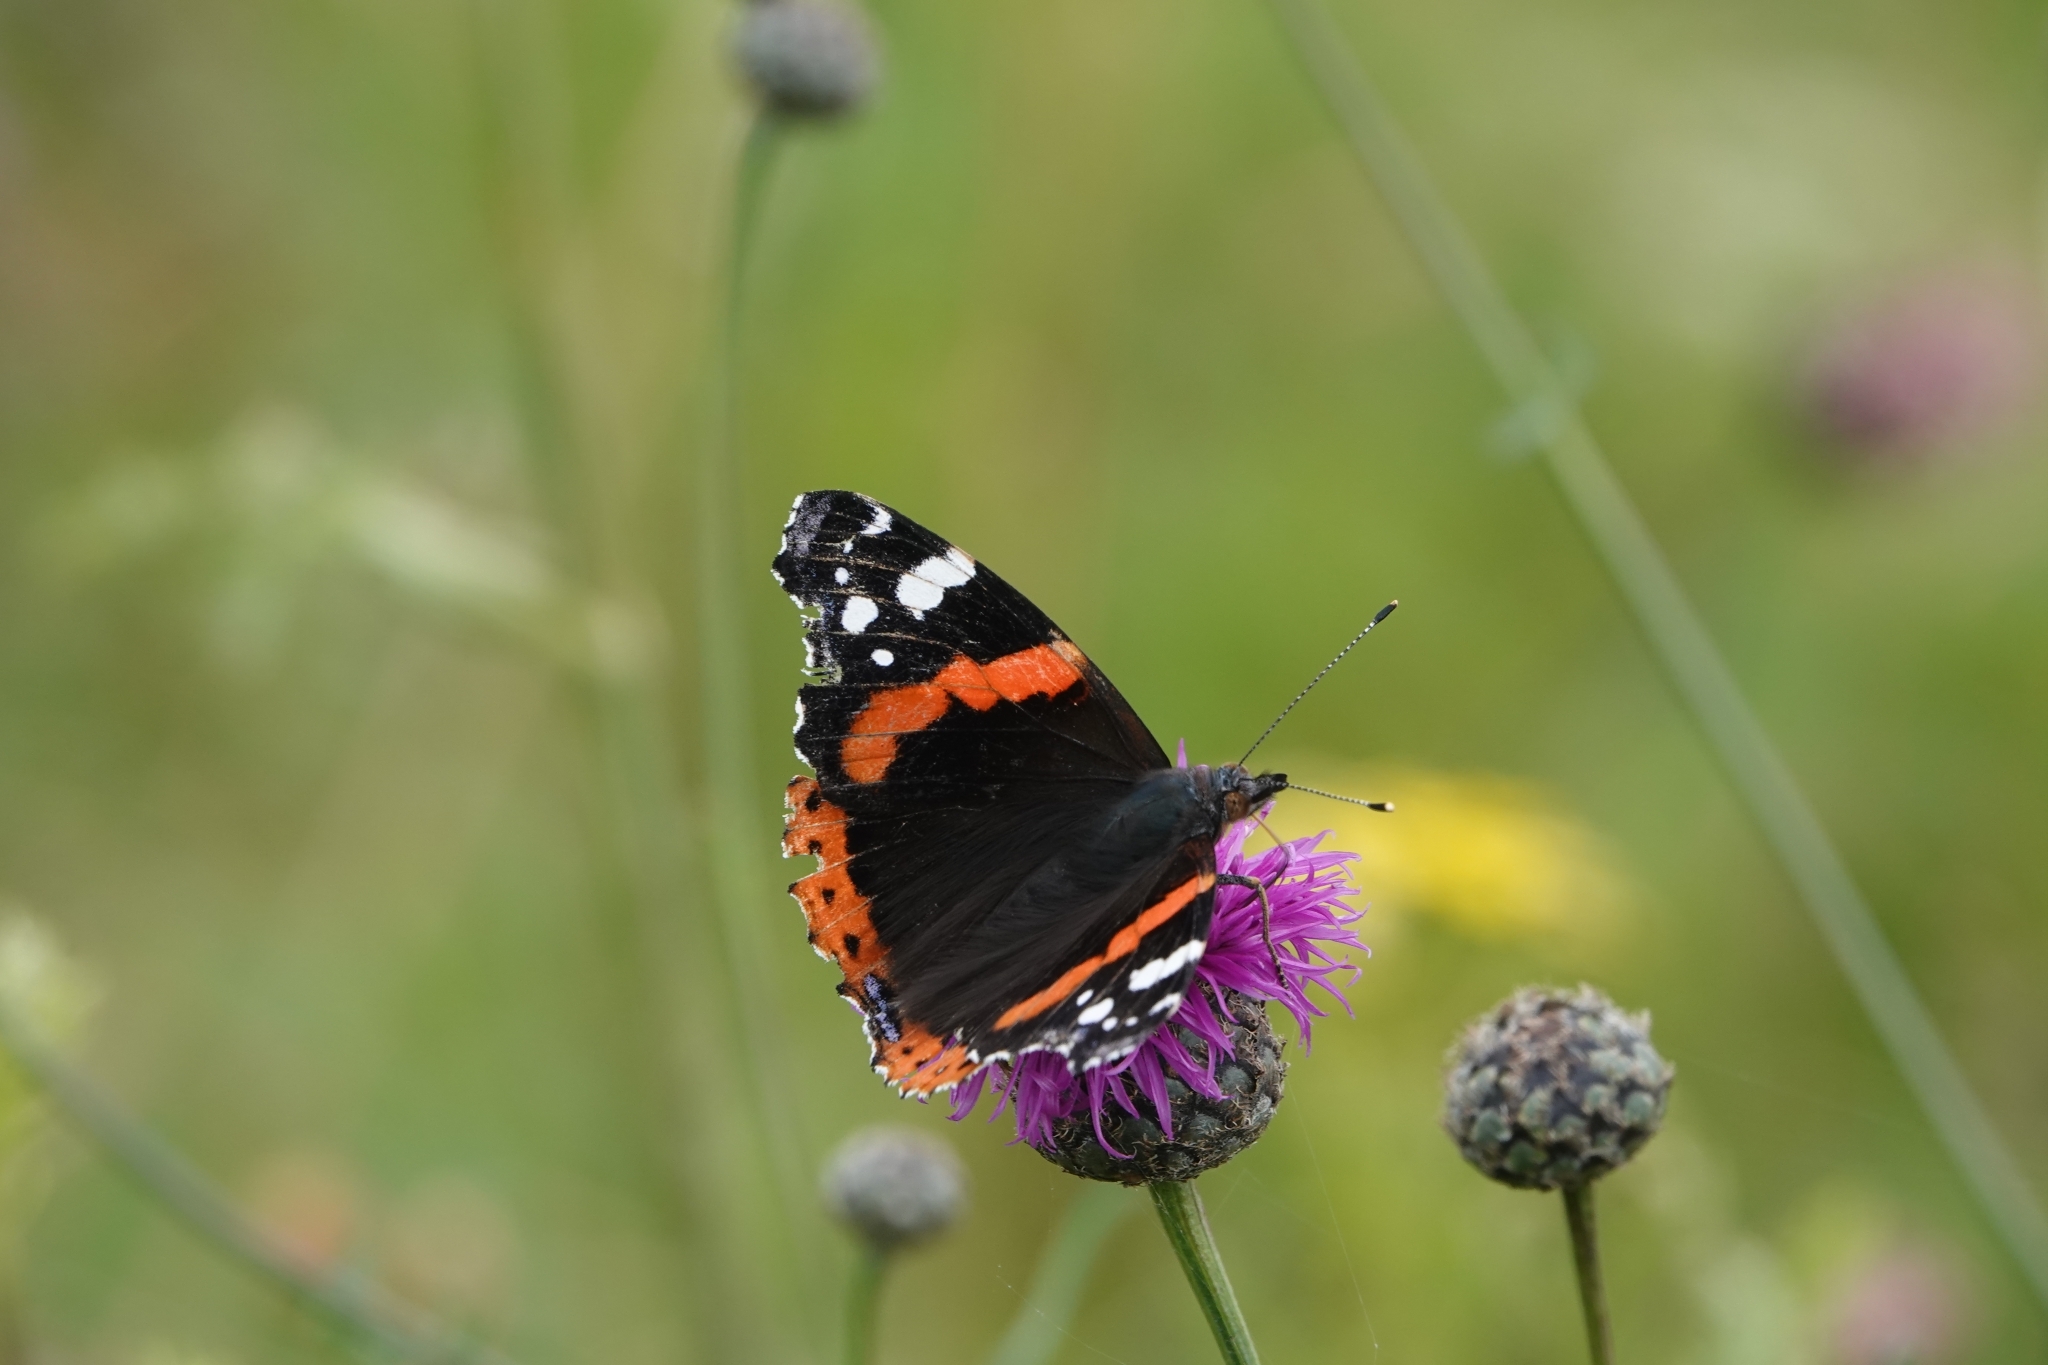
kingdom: Animalia
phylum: Arthropoda
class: Insecta
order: Lepidoptera
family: Nymphalidae
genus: Vanessa
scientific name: Vanessa atalanta
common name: Red admiral
